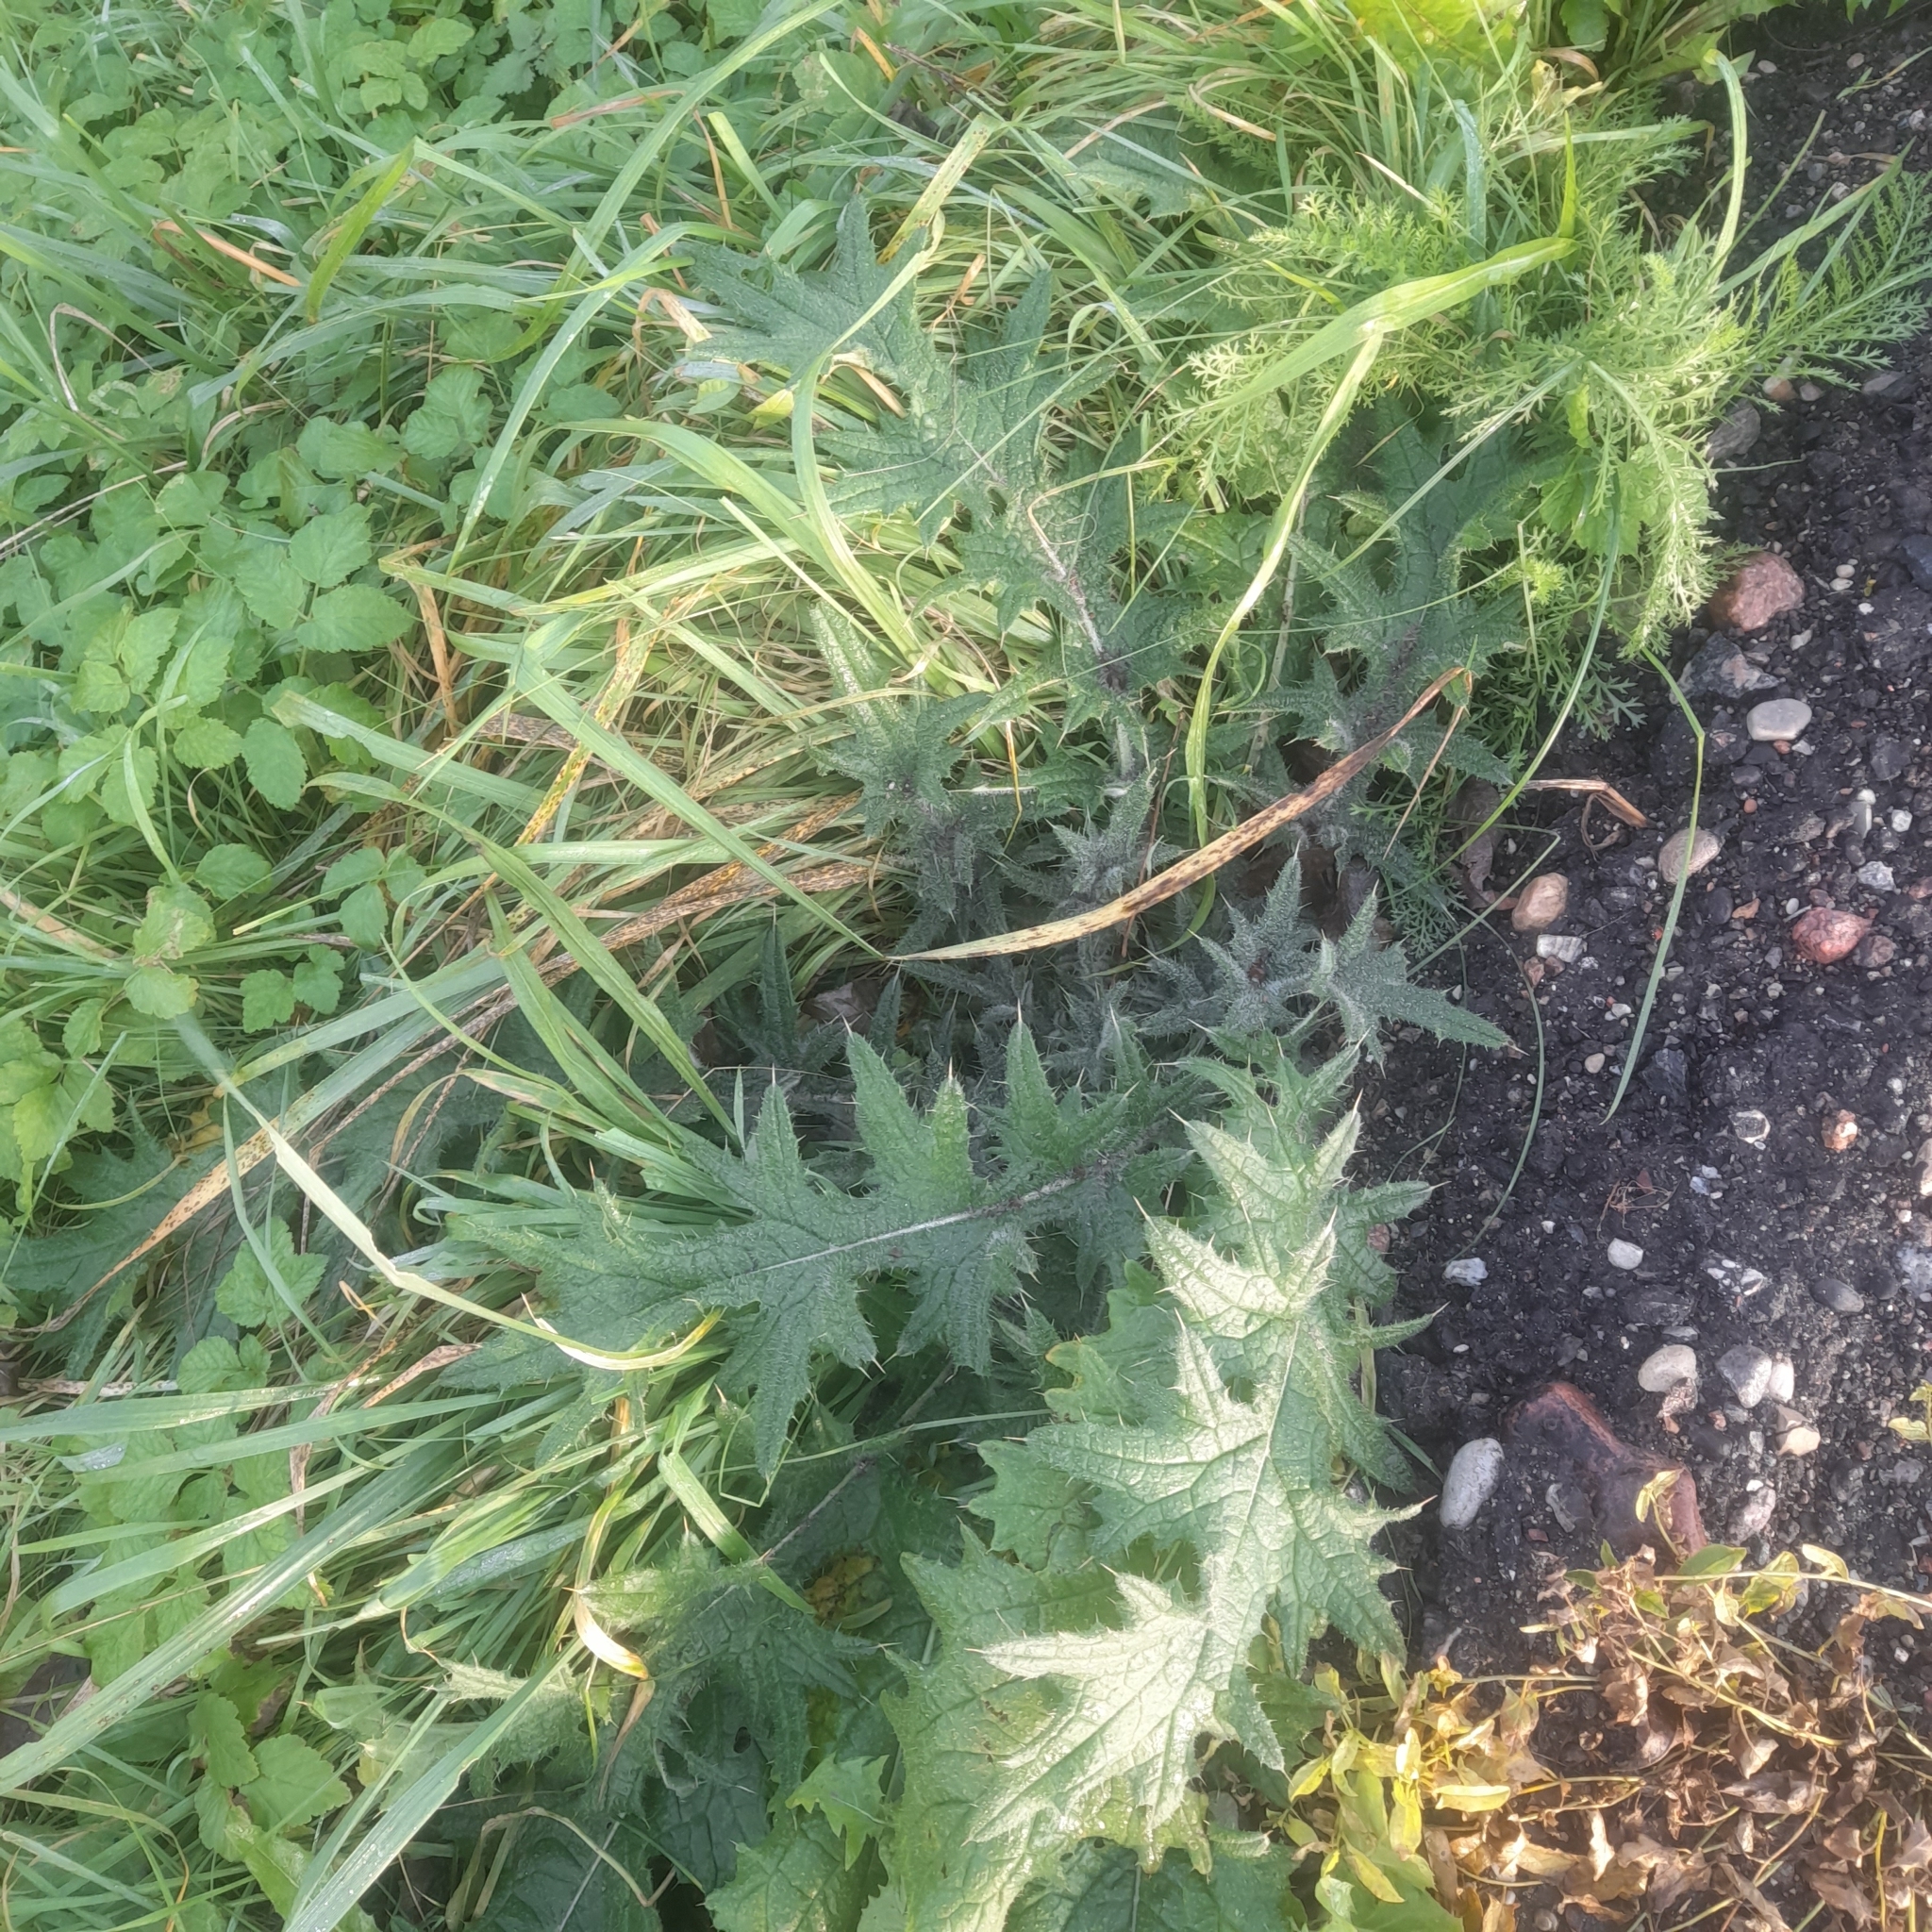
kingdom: Plantae
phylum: Tracheophyta
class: Magnoliopsida
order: Asterales
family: Asteraceae
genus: Cirsium
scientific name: Cirsium vulgare
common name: Bull thistle
